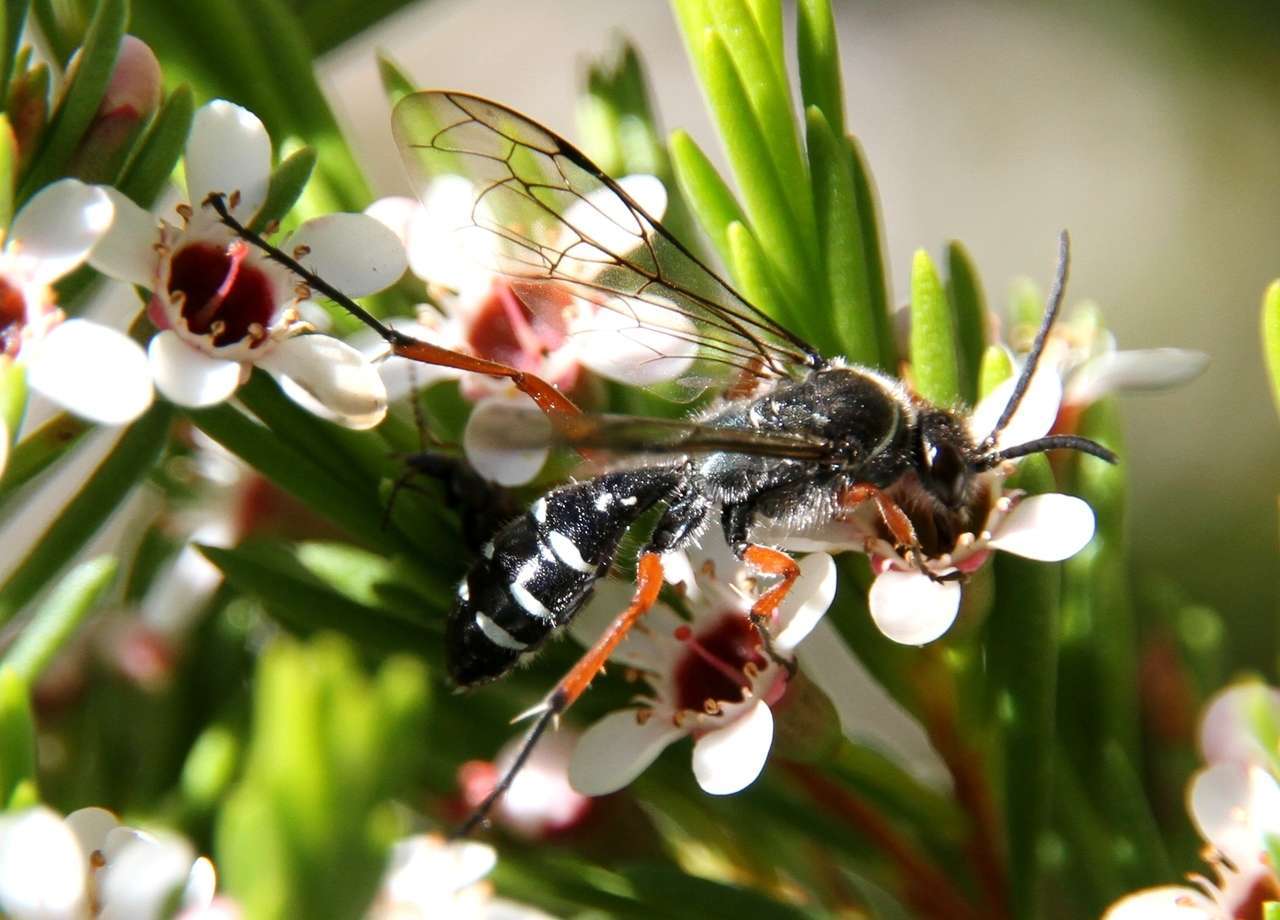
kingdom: Animalia
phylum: Arthropoda
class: Insecta
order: Hymenoptera
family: Tiphiidae
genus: Diamma
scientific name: Diamma
